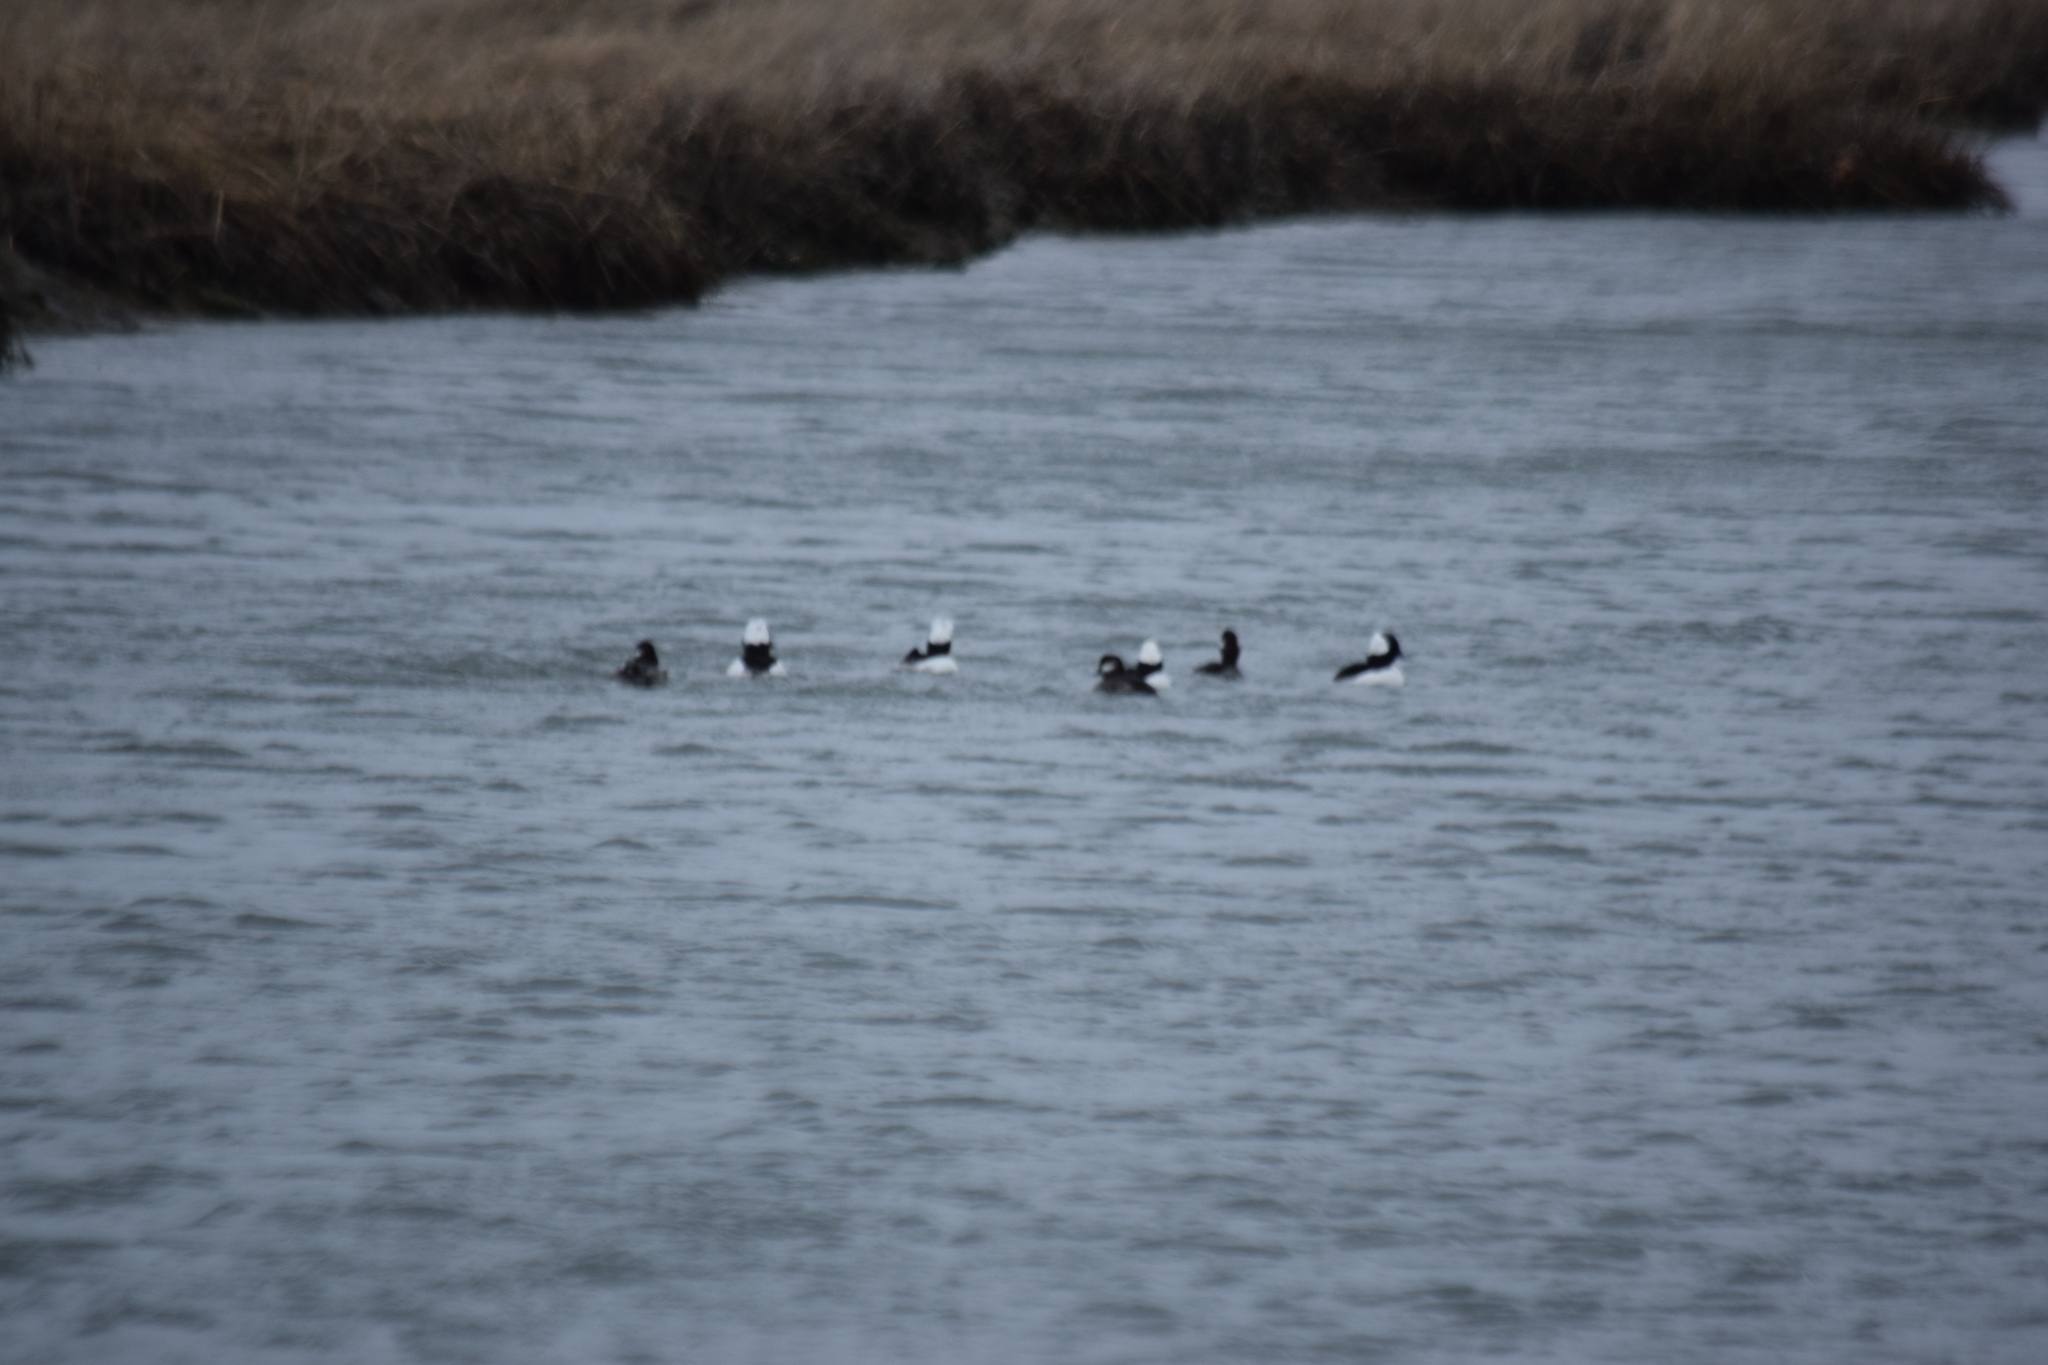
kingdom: Animalia
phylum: Chordata
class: Aves
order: Anseriformes
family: Anatidae
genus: Bucephala
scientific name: Bucephala albeola
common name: Bufflehead
